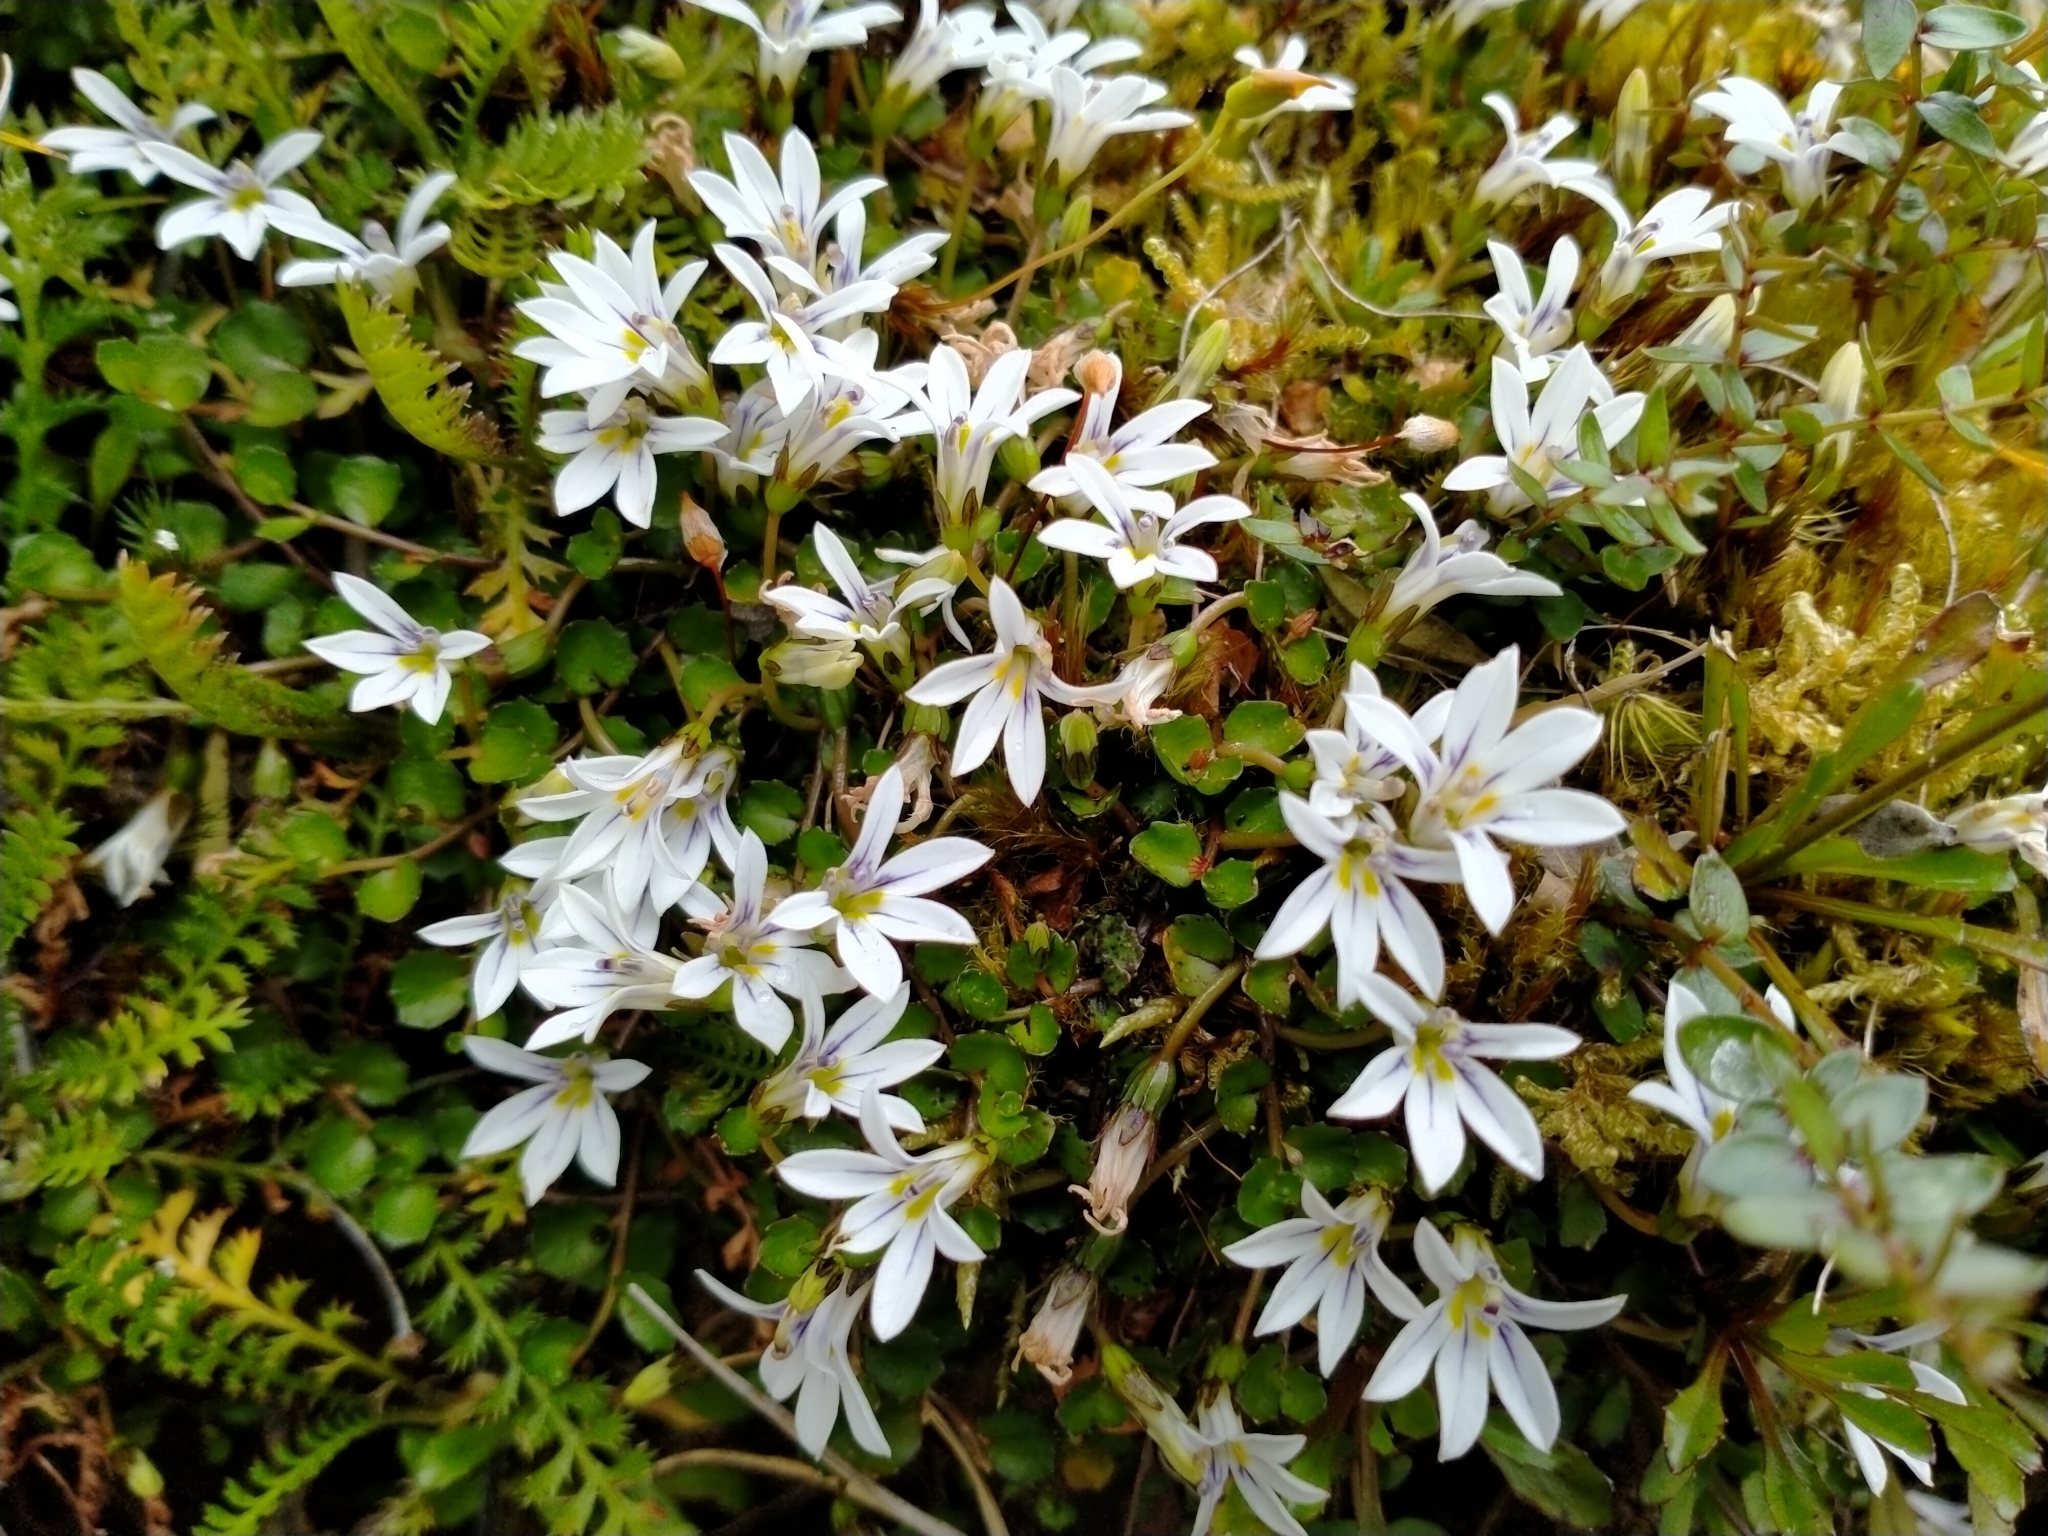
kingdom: Plantae
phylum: Tracheophyta
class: Magnoliopsida
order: Asterales
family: Campanulaceae
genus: Lobelia
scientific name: Lobelia angulata
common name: Lawn lobelia
